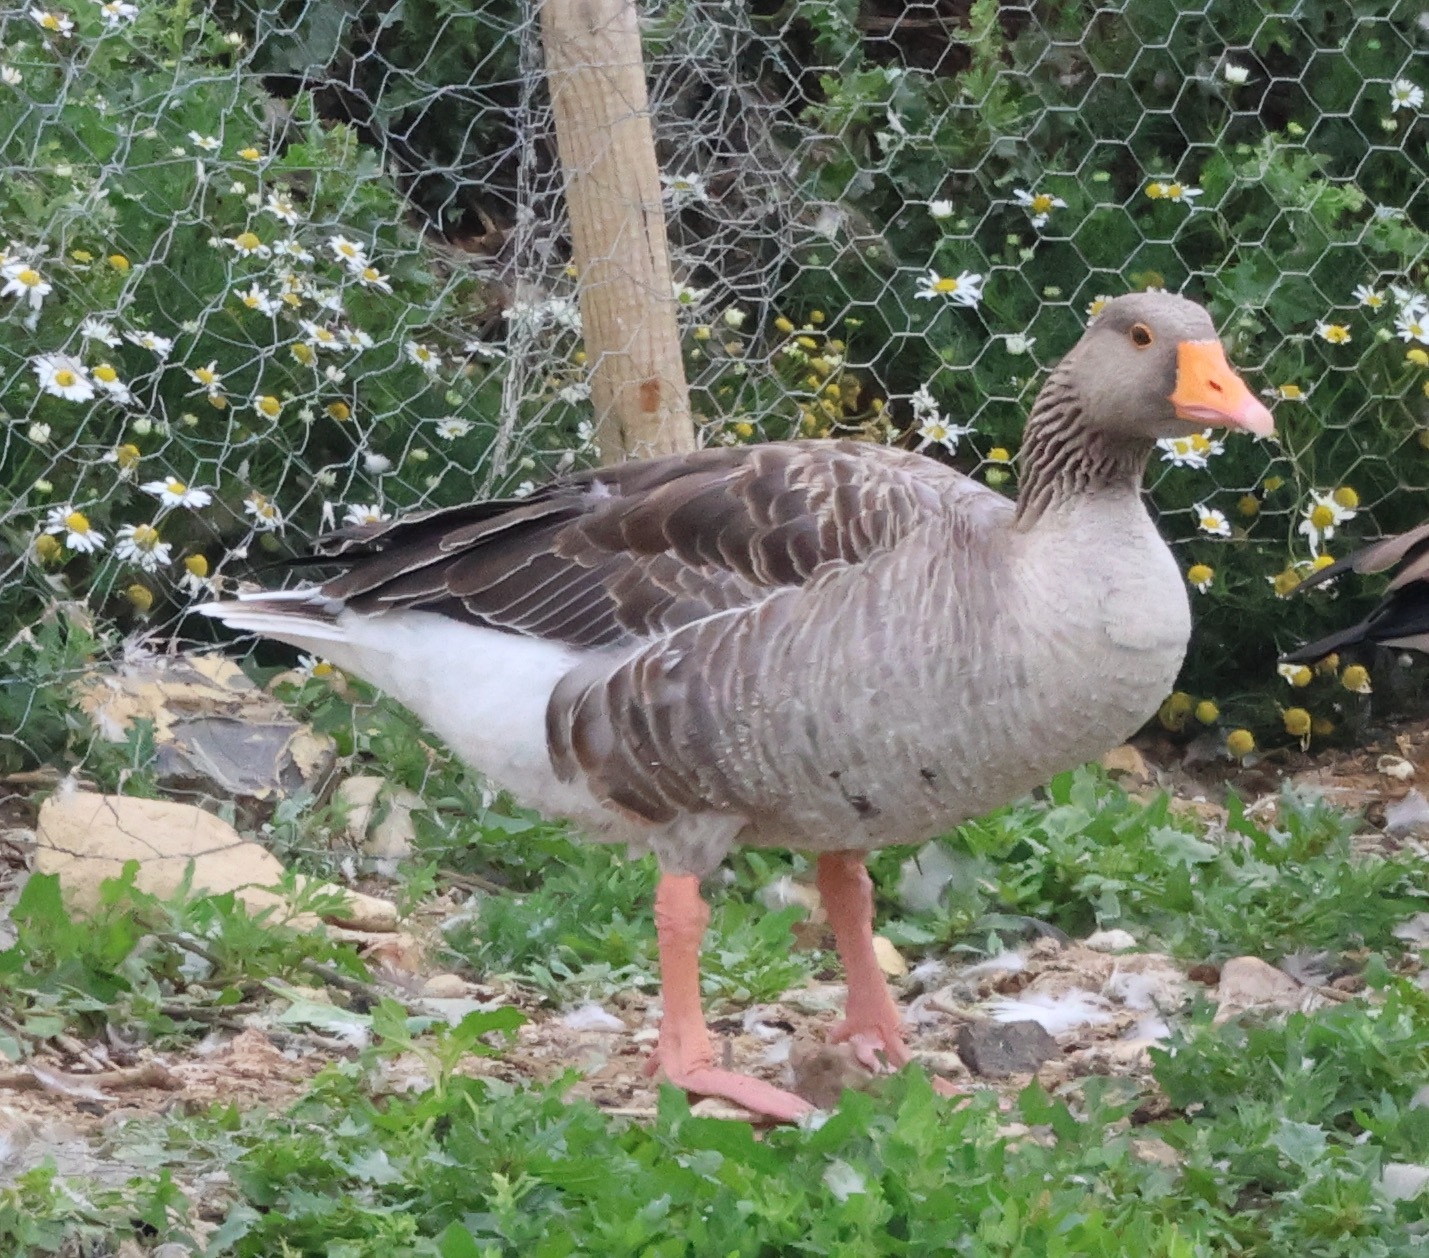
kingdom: Animalia
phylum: Chordata
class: Aves
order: Anseriformes
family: Anatidae
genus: Anser
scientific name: Anser anser
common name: Greylag goose
